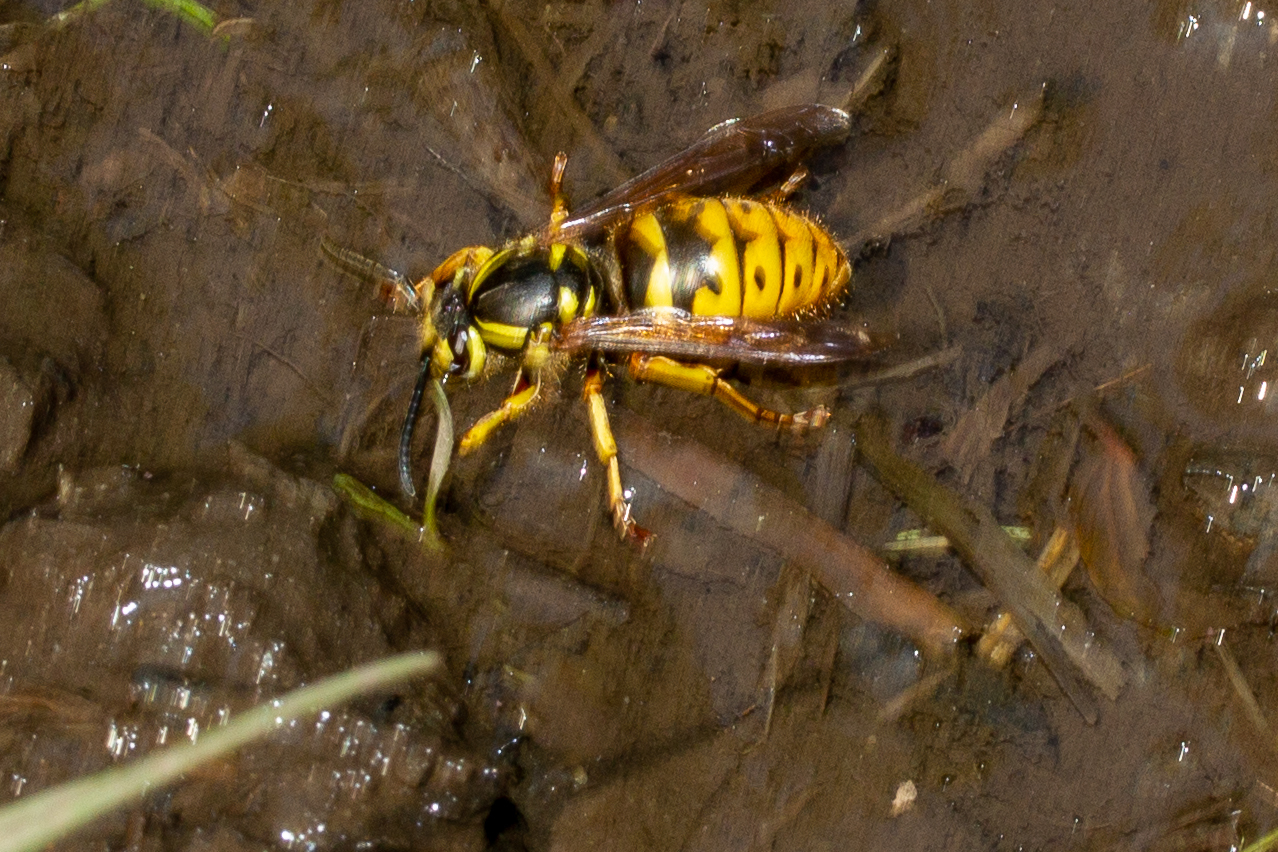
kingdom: Animalia
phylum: Arthropoda
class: Insecta
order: Hymenoptera
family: Vespidae
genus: Vespula
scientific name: Vespula flavopilosa
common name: Downy yellowjacket
